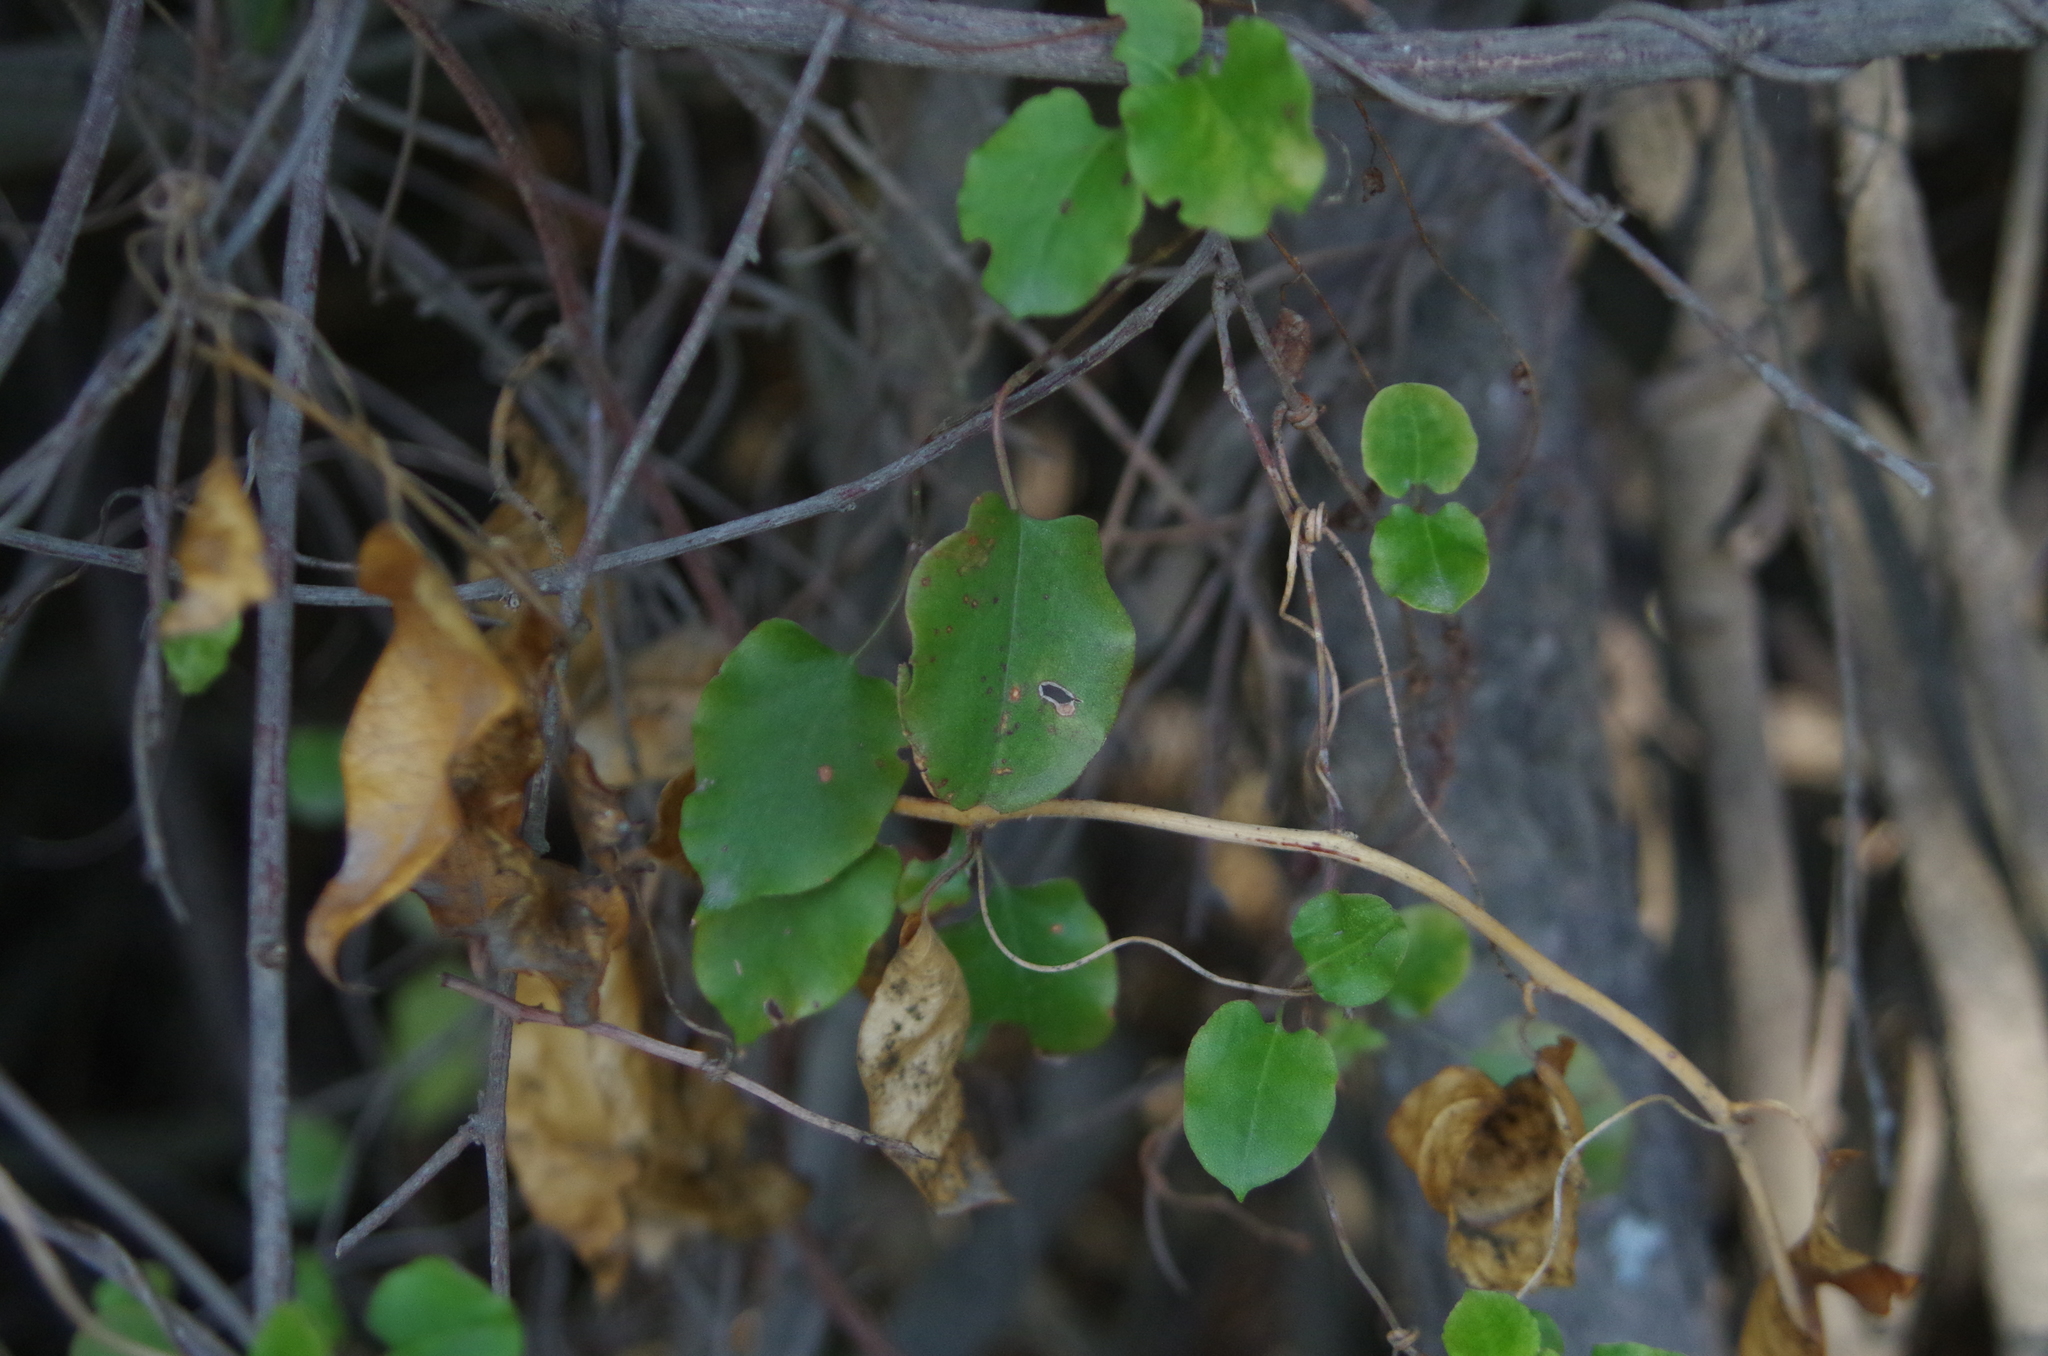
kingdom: Plantae
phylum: Tracheophyta
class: Magnoliopsida
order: Caryophyllales
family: Polygonaceae
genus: Muehlenbeckia
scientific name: Muehlenbeckia australis
